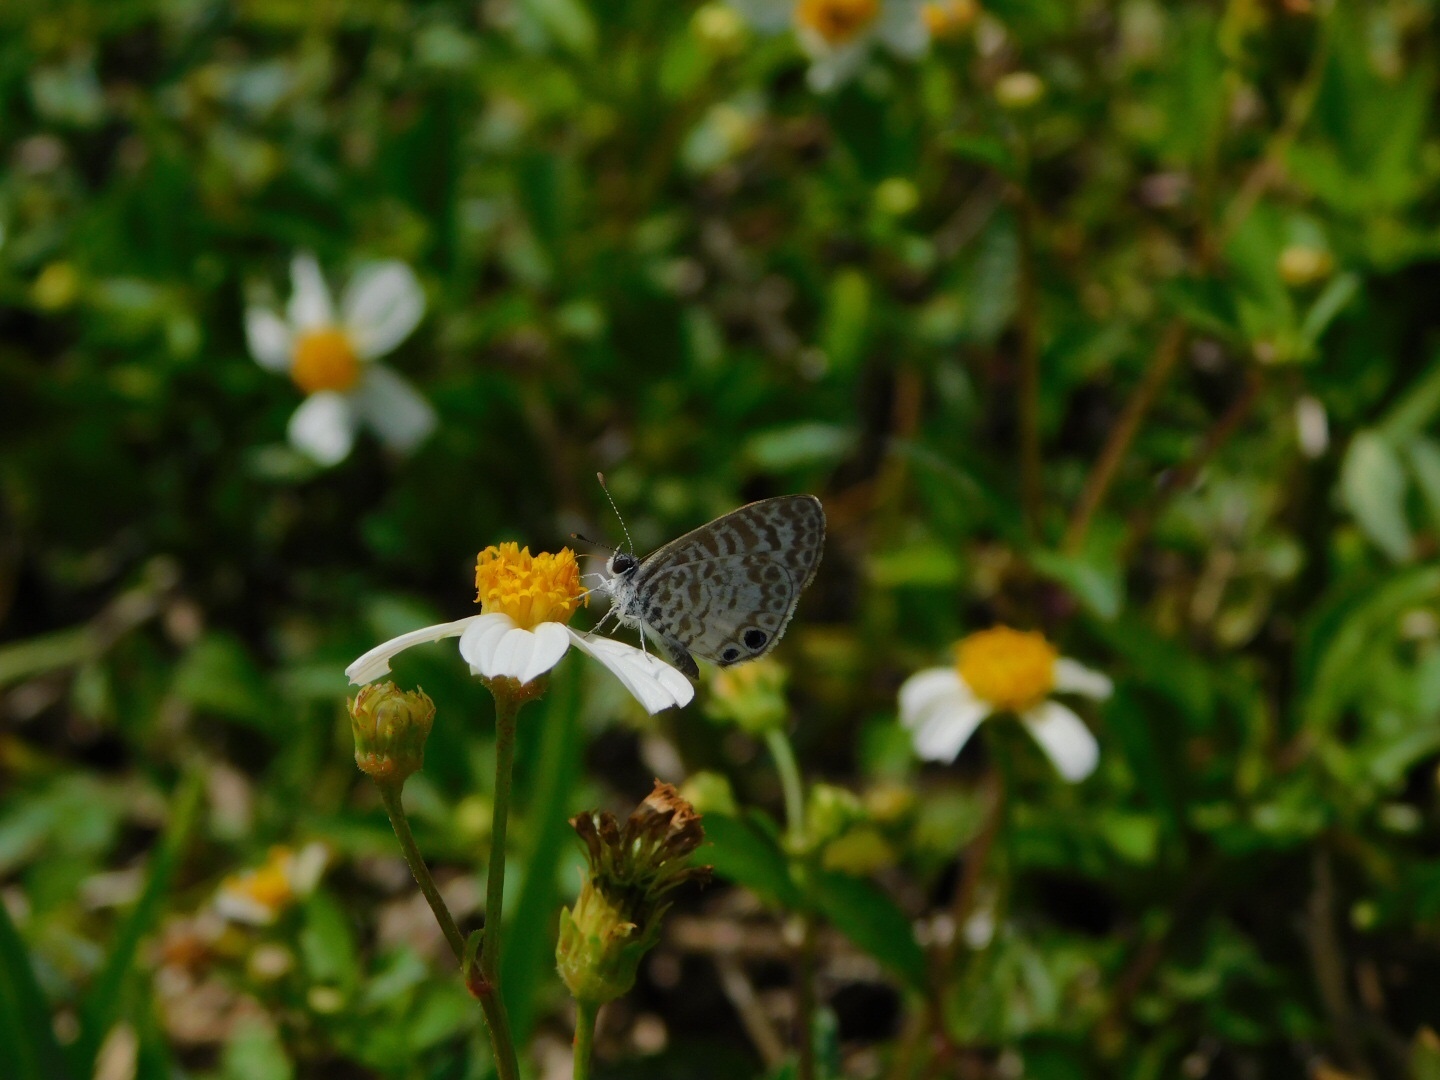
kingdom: Animalia
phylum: Arthropoda
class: Insecta
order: Lepidoptera
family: Lycaenidae
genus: Leptotes
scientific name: Leptotes cassius
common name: Cassius blue
